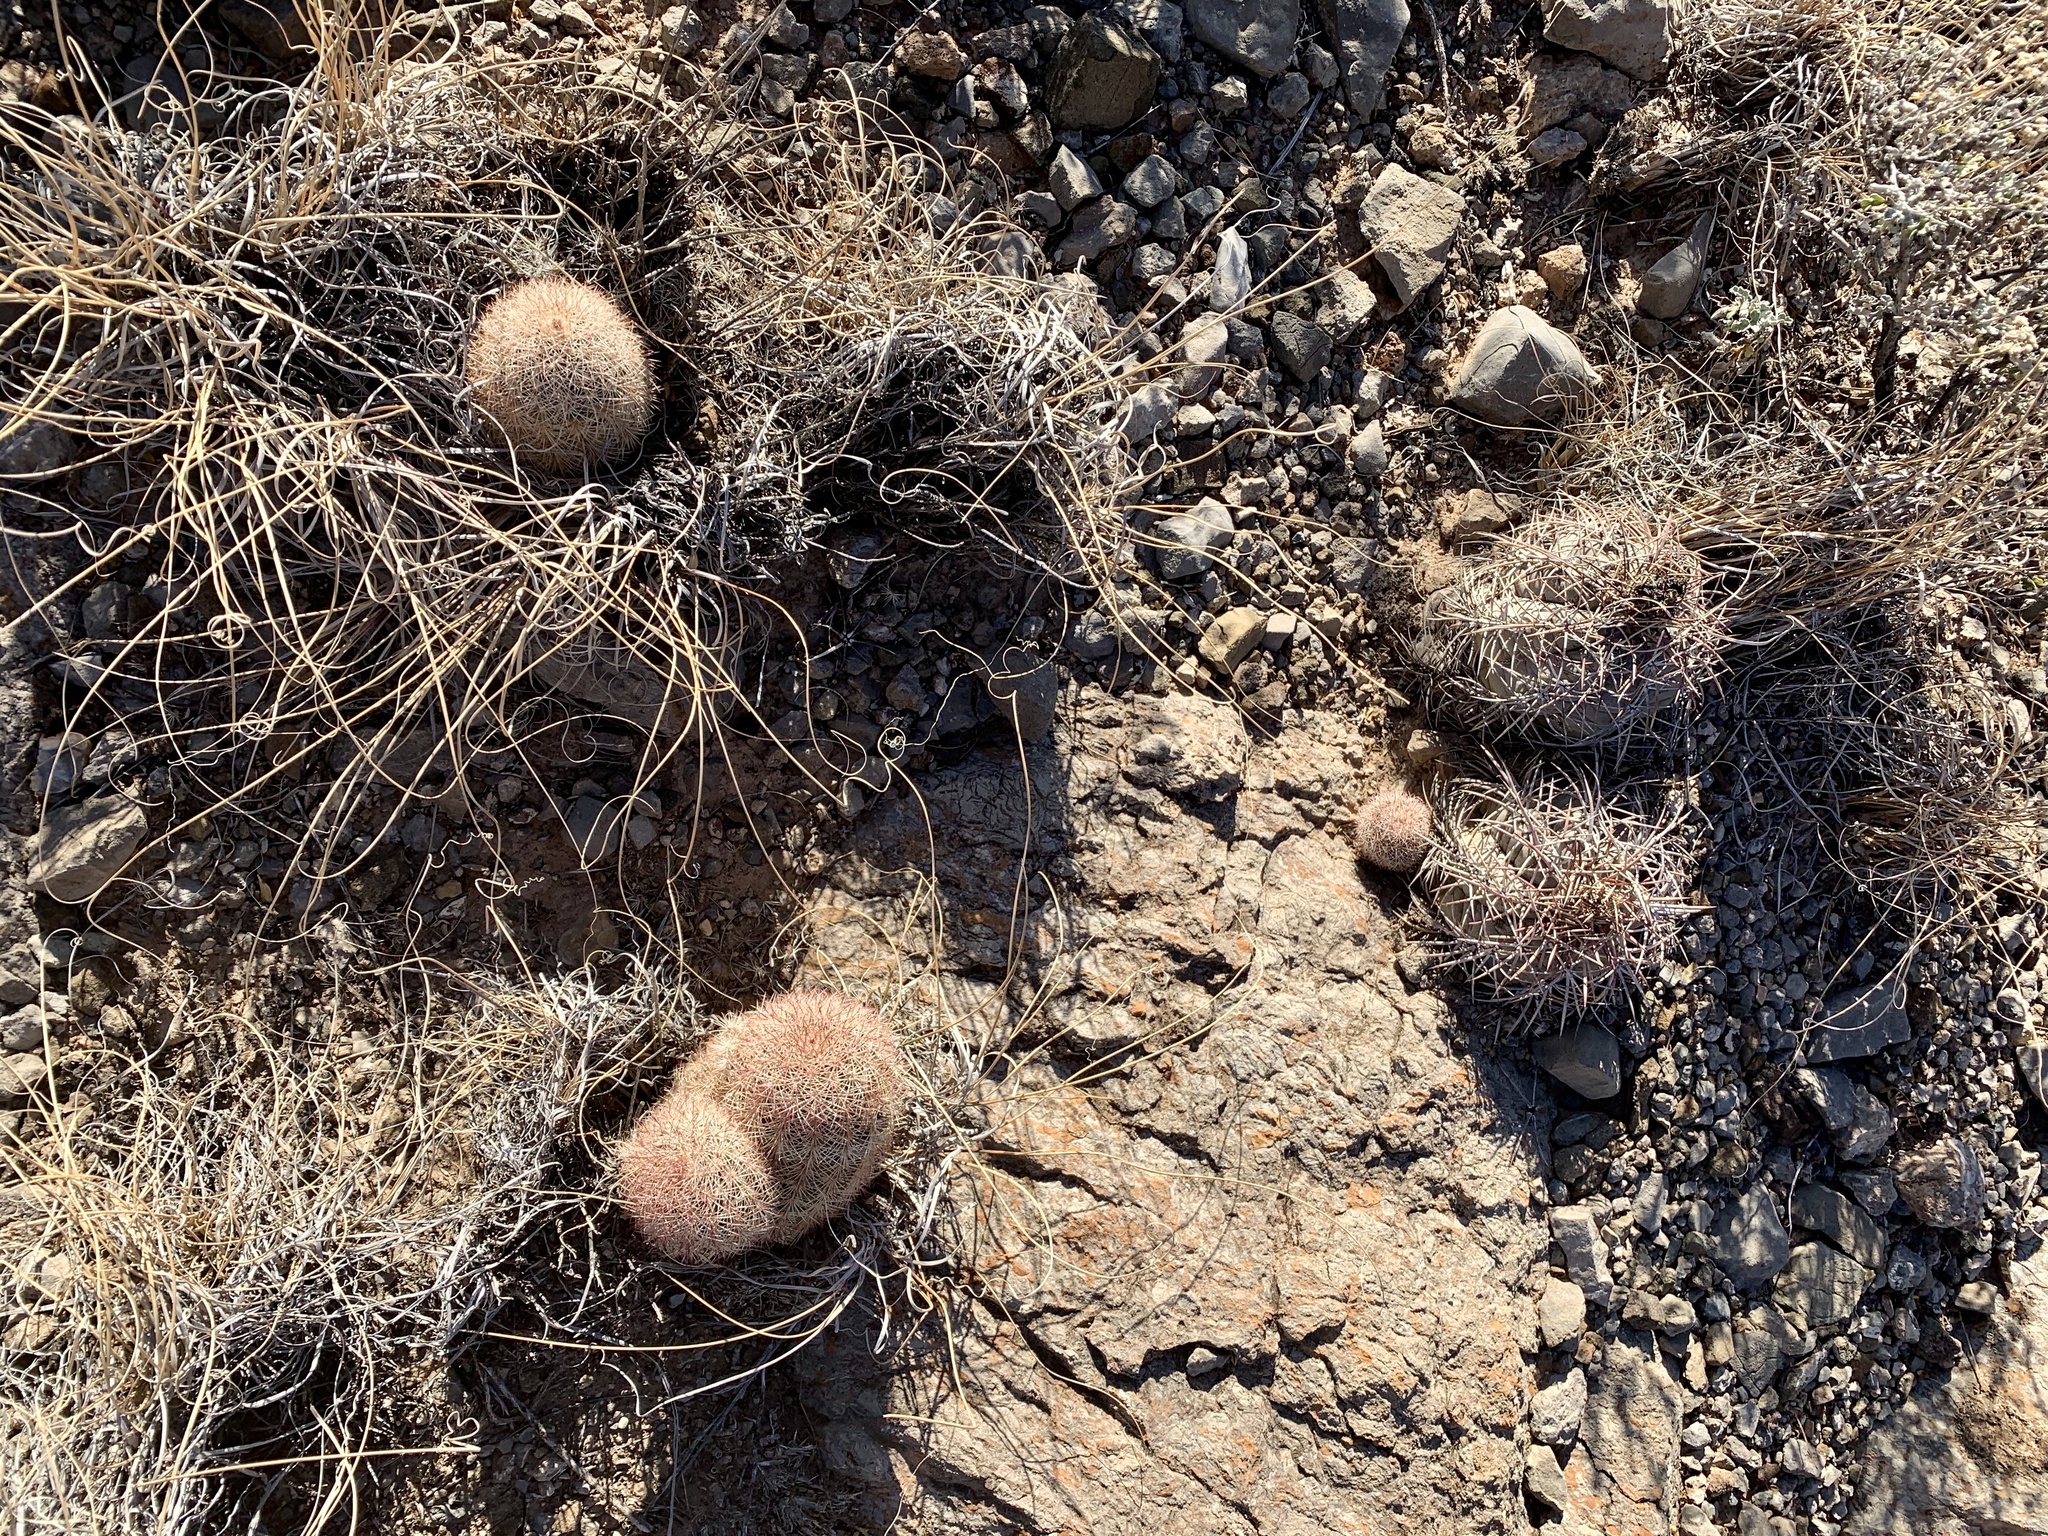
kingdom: Plantae
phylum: Tracheophyta
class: Magnoliopsida
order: Caryophyllales
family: Cactaceae
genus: Echinocactus
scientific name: Echinocactus horizonthalonius
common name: Devilshead
